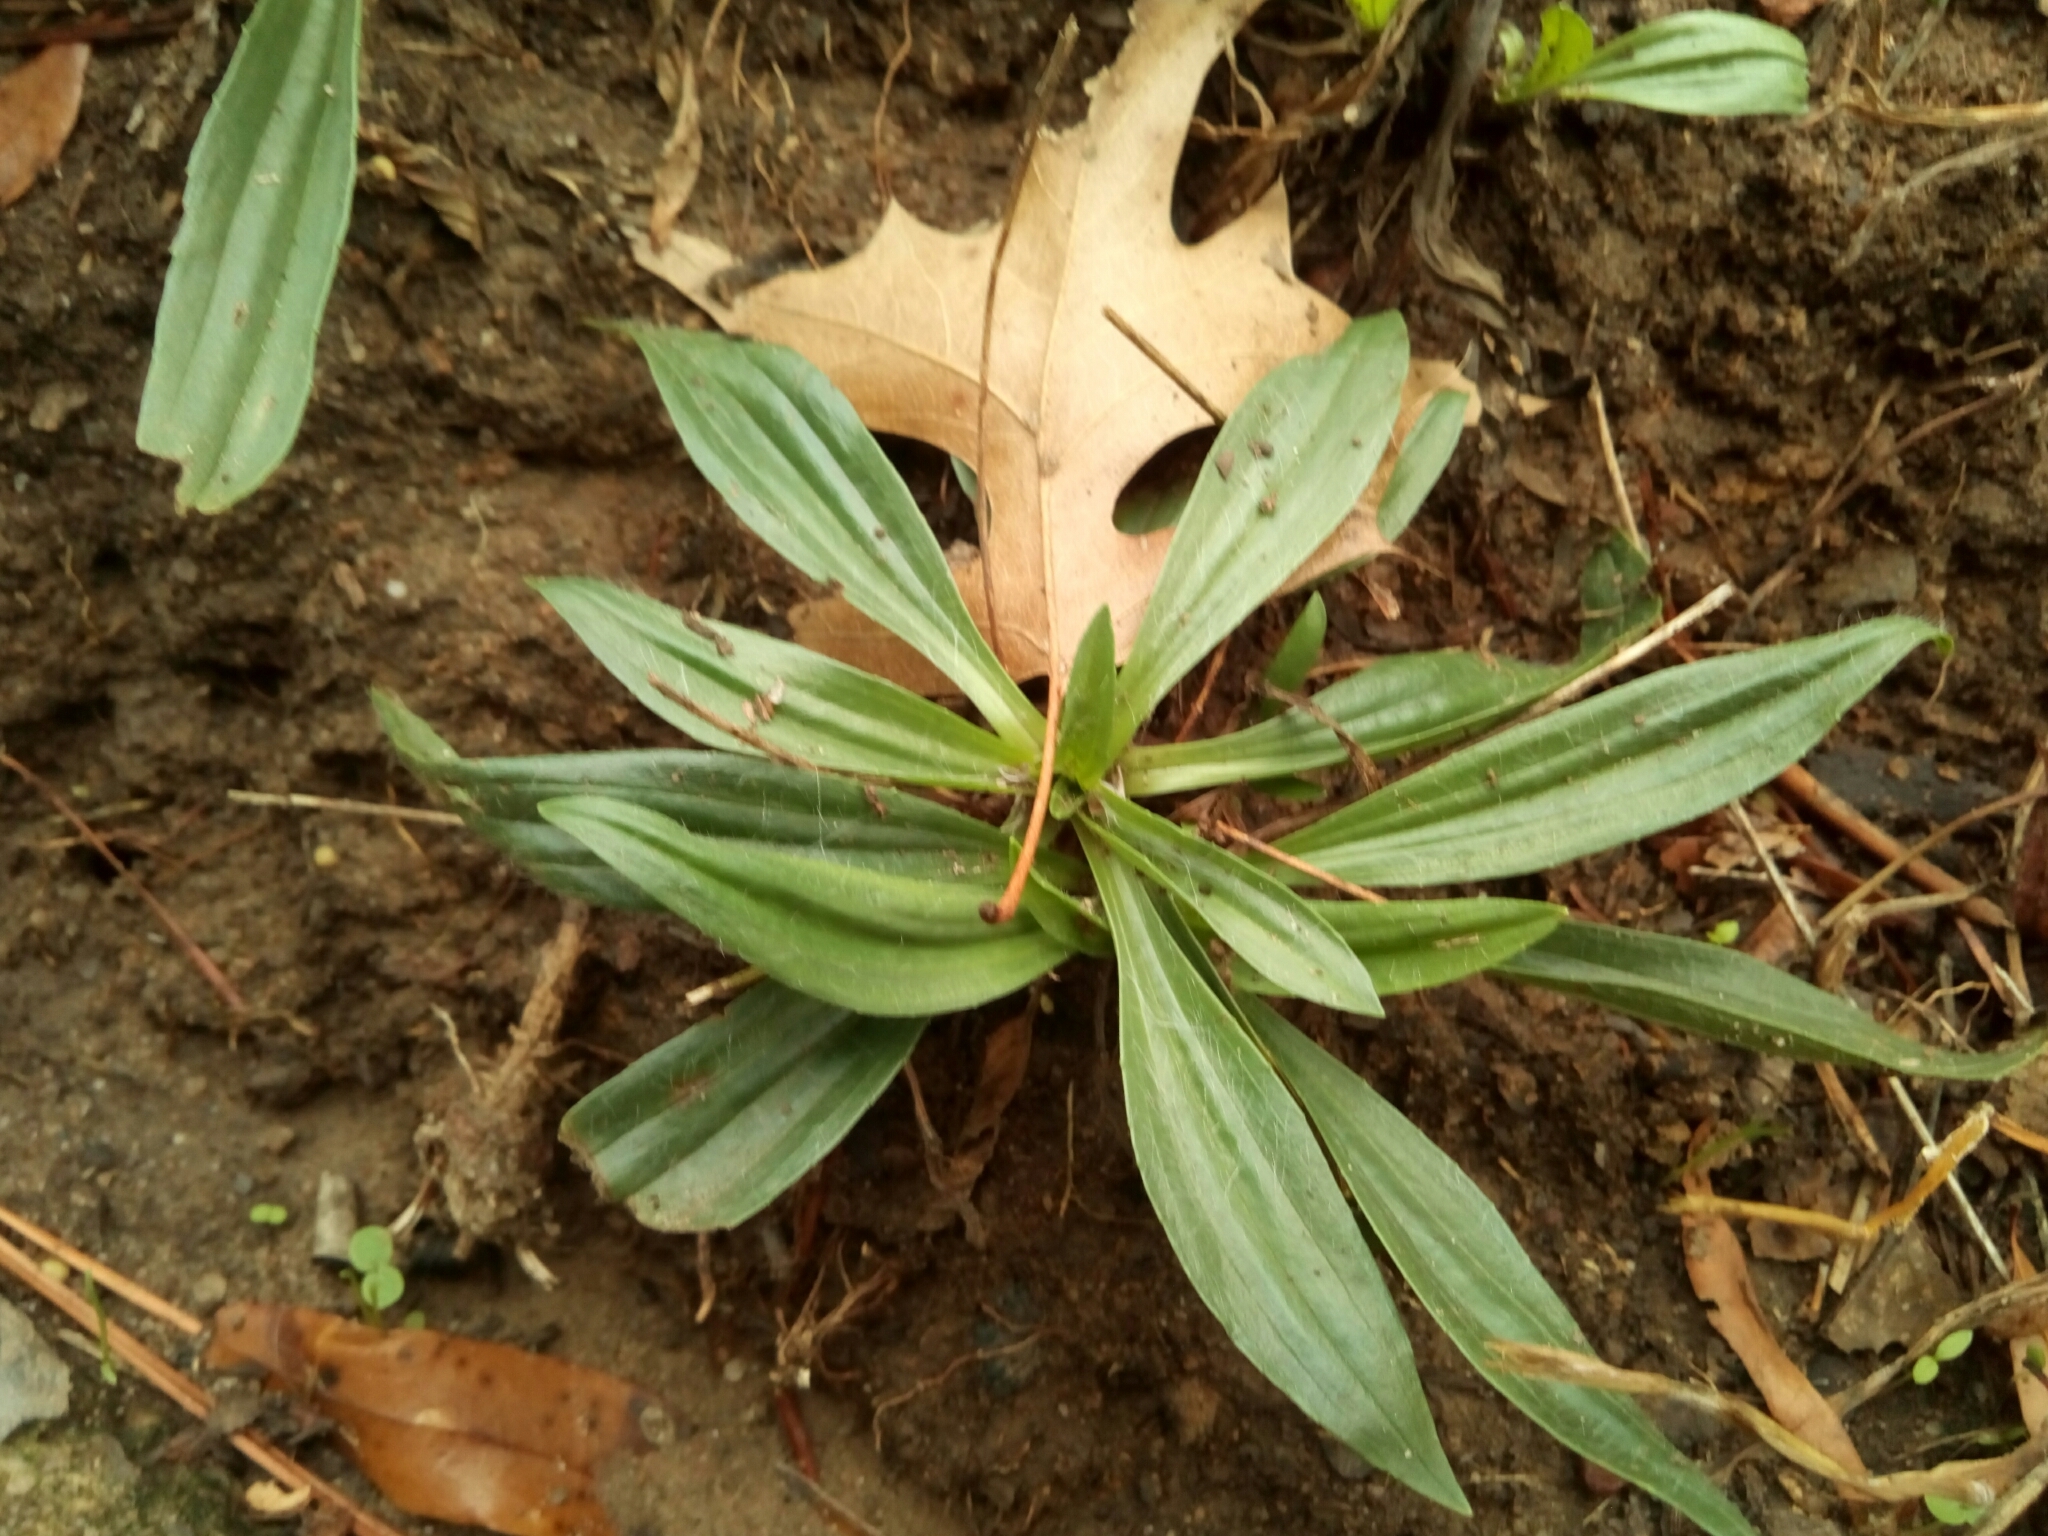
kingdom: Plantae
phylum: Tracheophyta
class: Magnoliopsida
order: Lamiales
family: Plantaginaceae
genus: Plantago
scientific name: Plantago lanceolata
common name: Ribwort plantain
